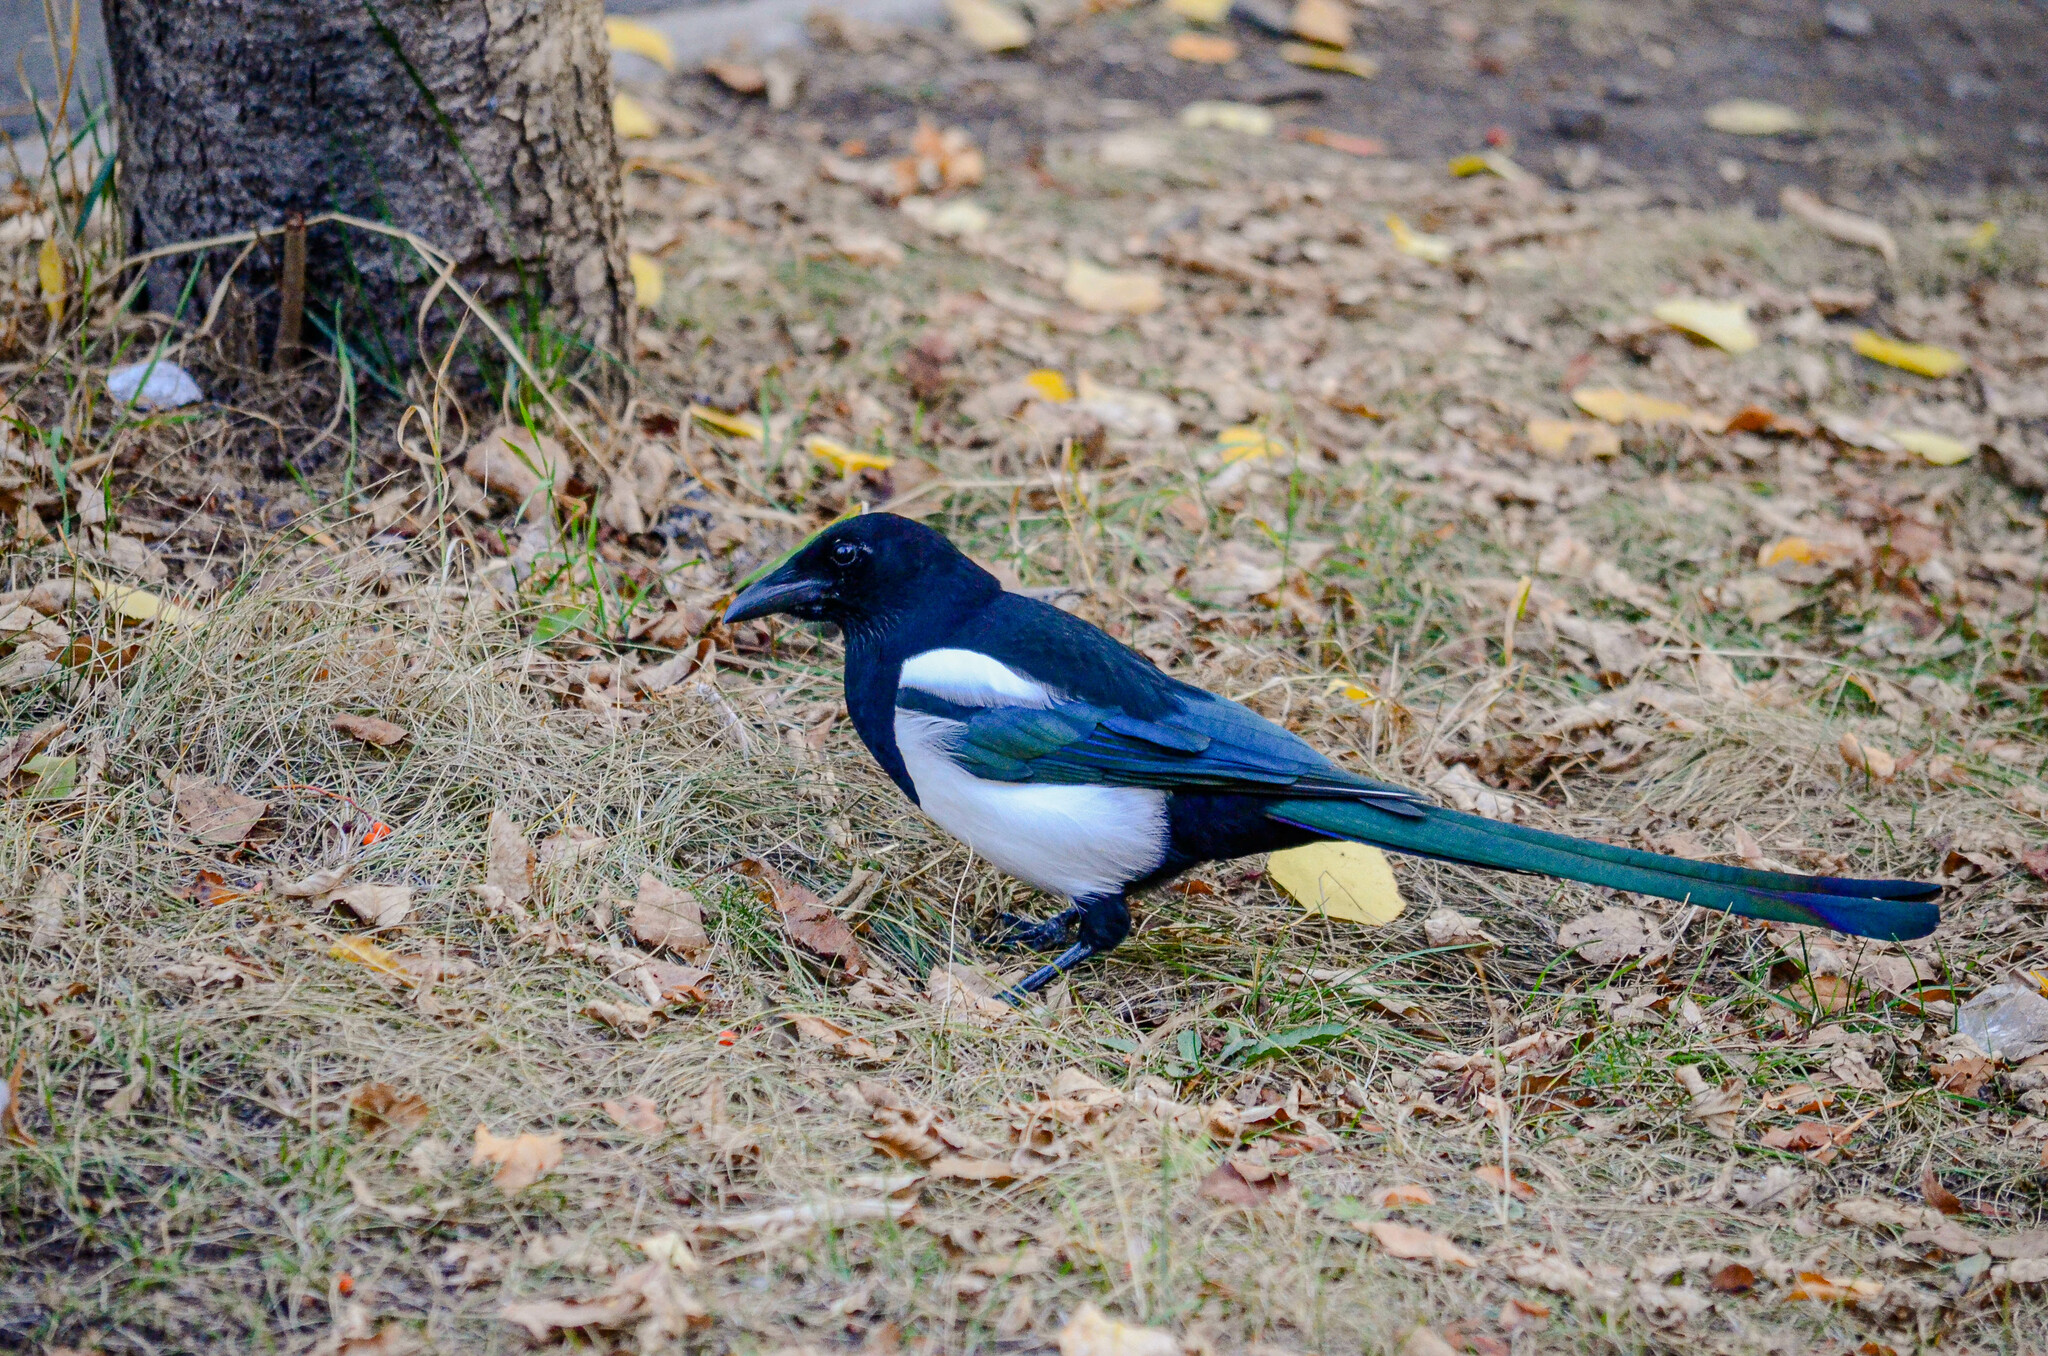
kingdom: Animalia
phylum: Chordata
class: Aves
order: Passeriformes
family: Corvidae
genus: Pica
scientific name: Pica pica
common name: Eurasian magpie
